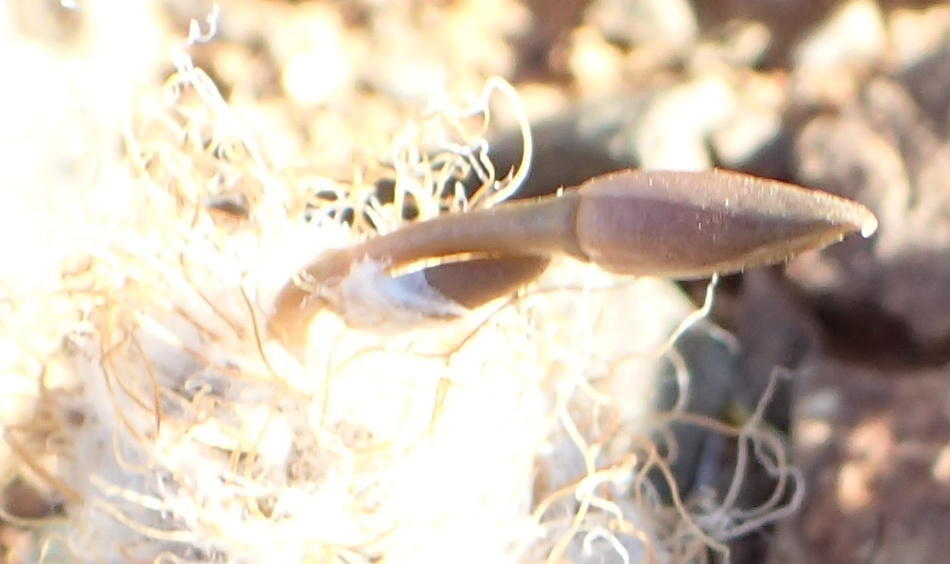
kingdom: Plantae
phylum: Tracheophyta
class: Magnoliopsida
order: Caryophyllales
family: Anacampserotaceae
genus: Anacampseros
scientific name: Anacampseros albidiflora
